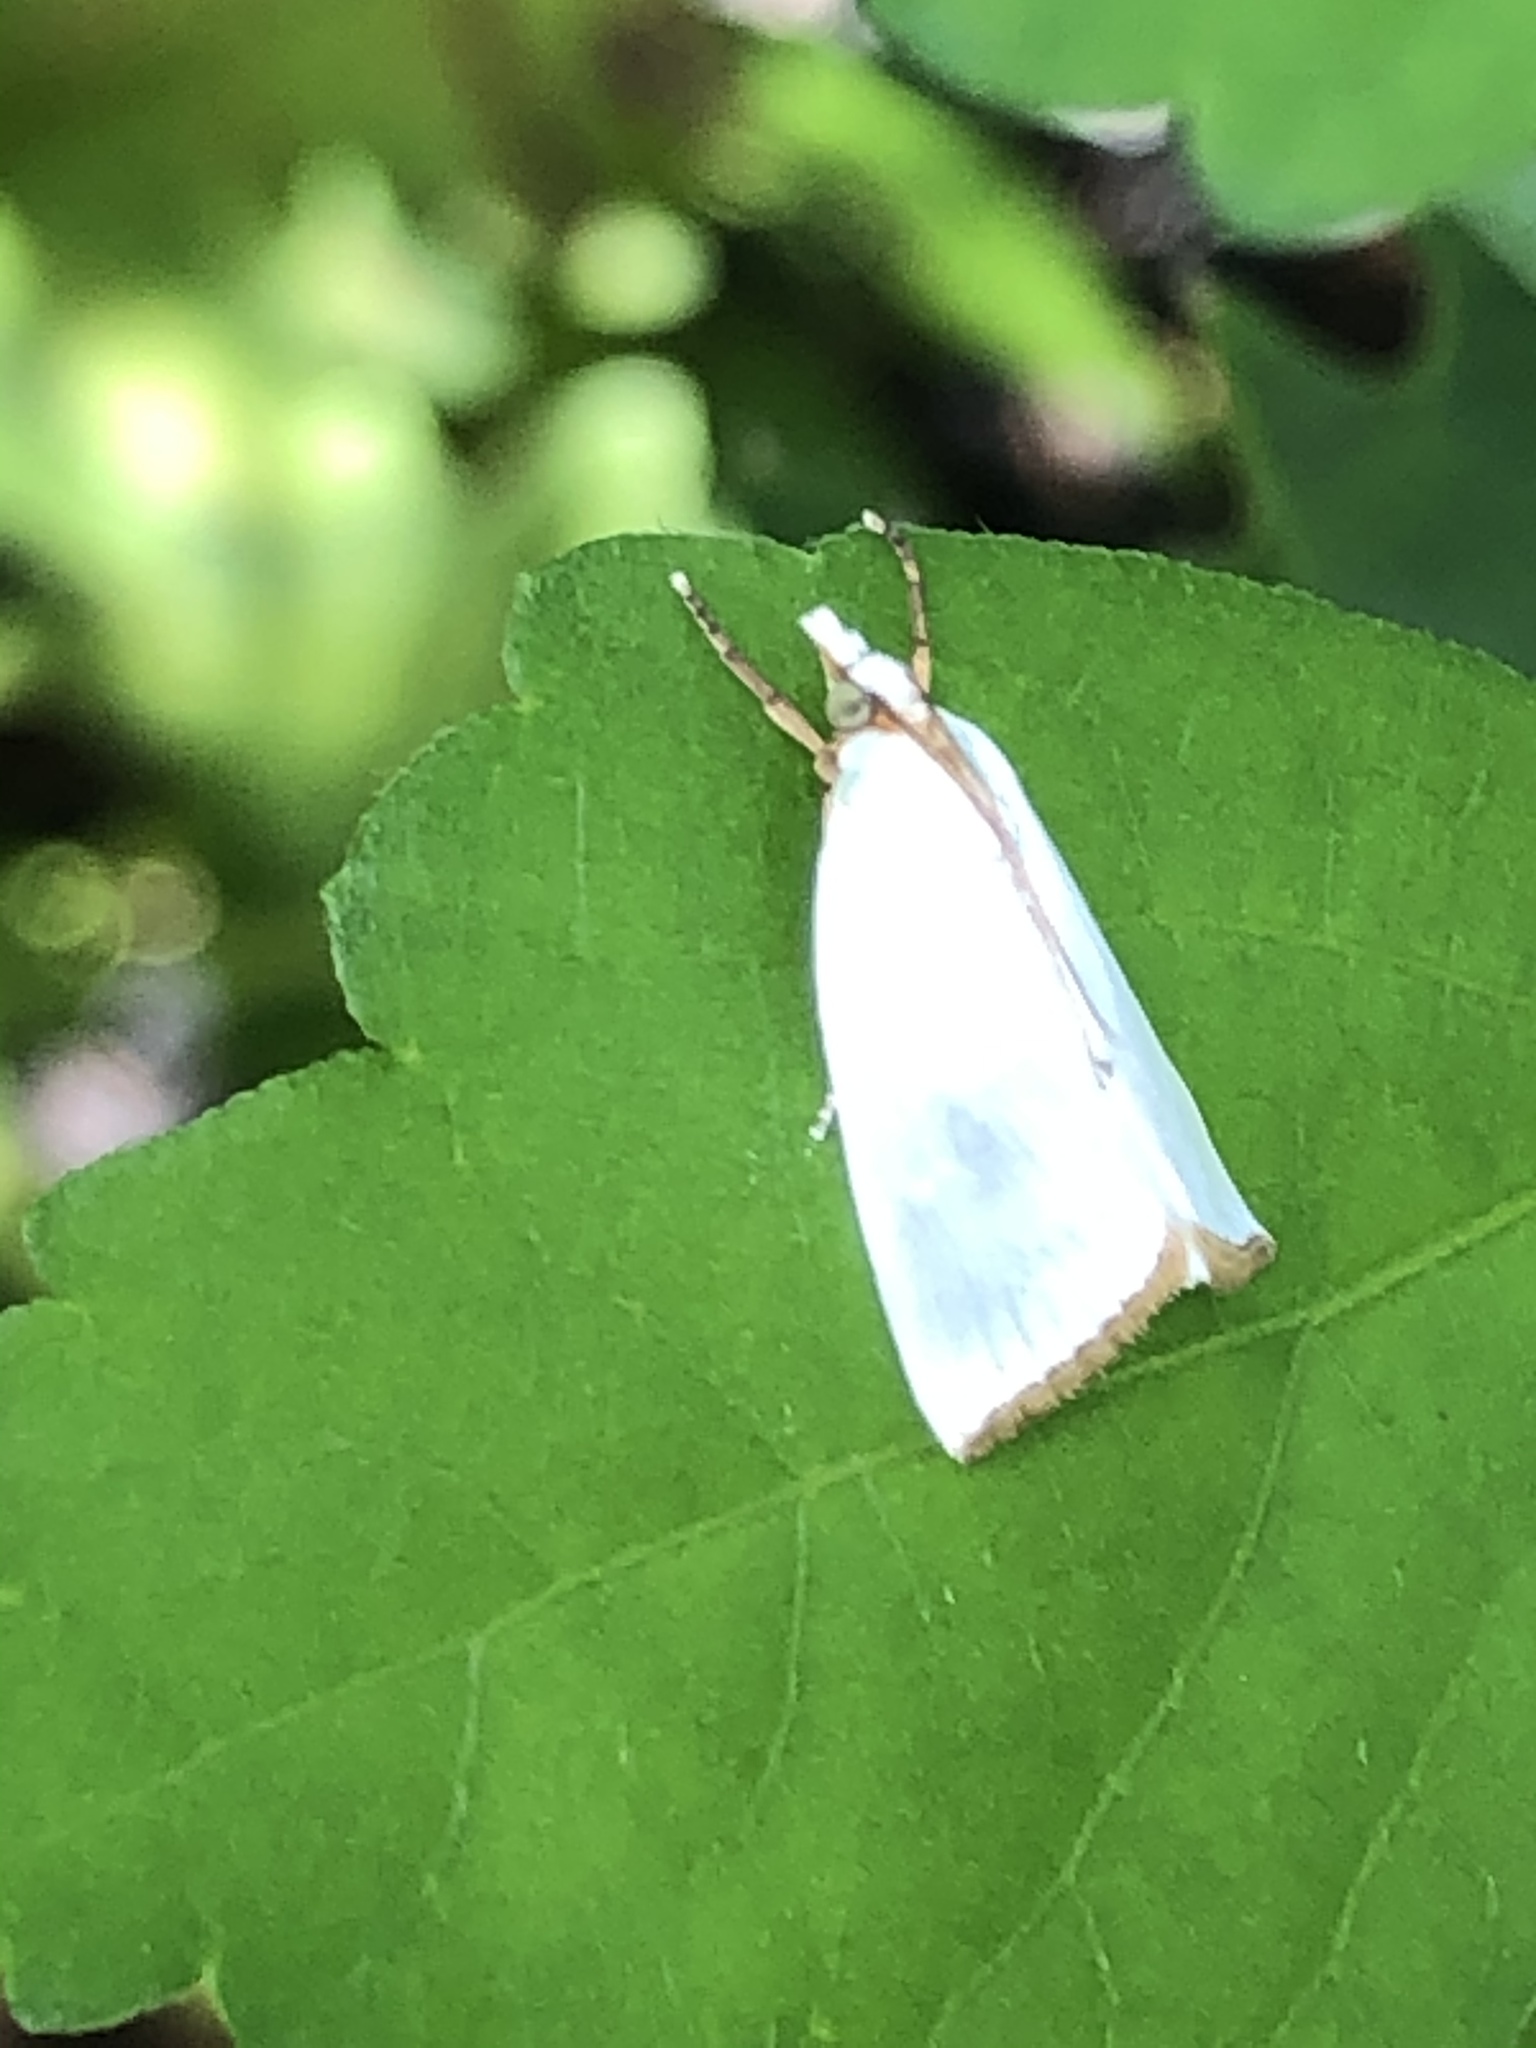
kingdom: Animalia
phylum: Arthropoda
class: Insecta
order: Lepidoptera
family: Crambidae
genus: Argyria
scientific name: Argyria nivalis
